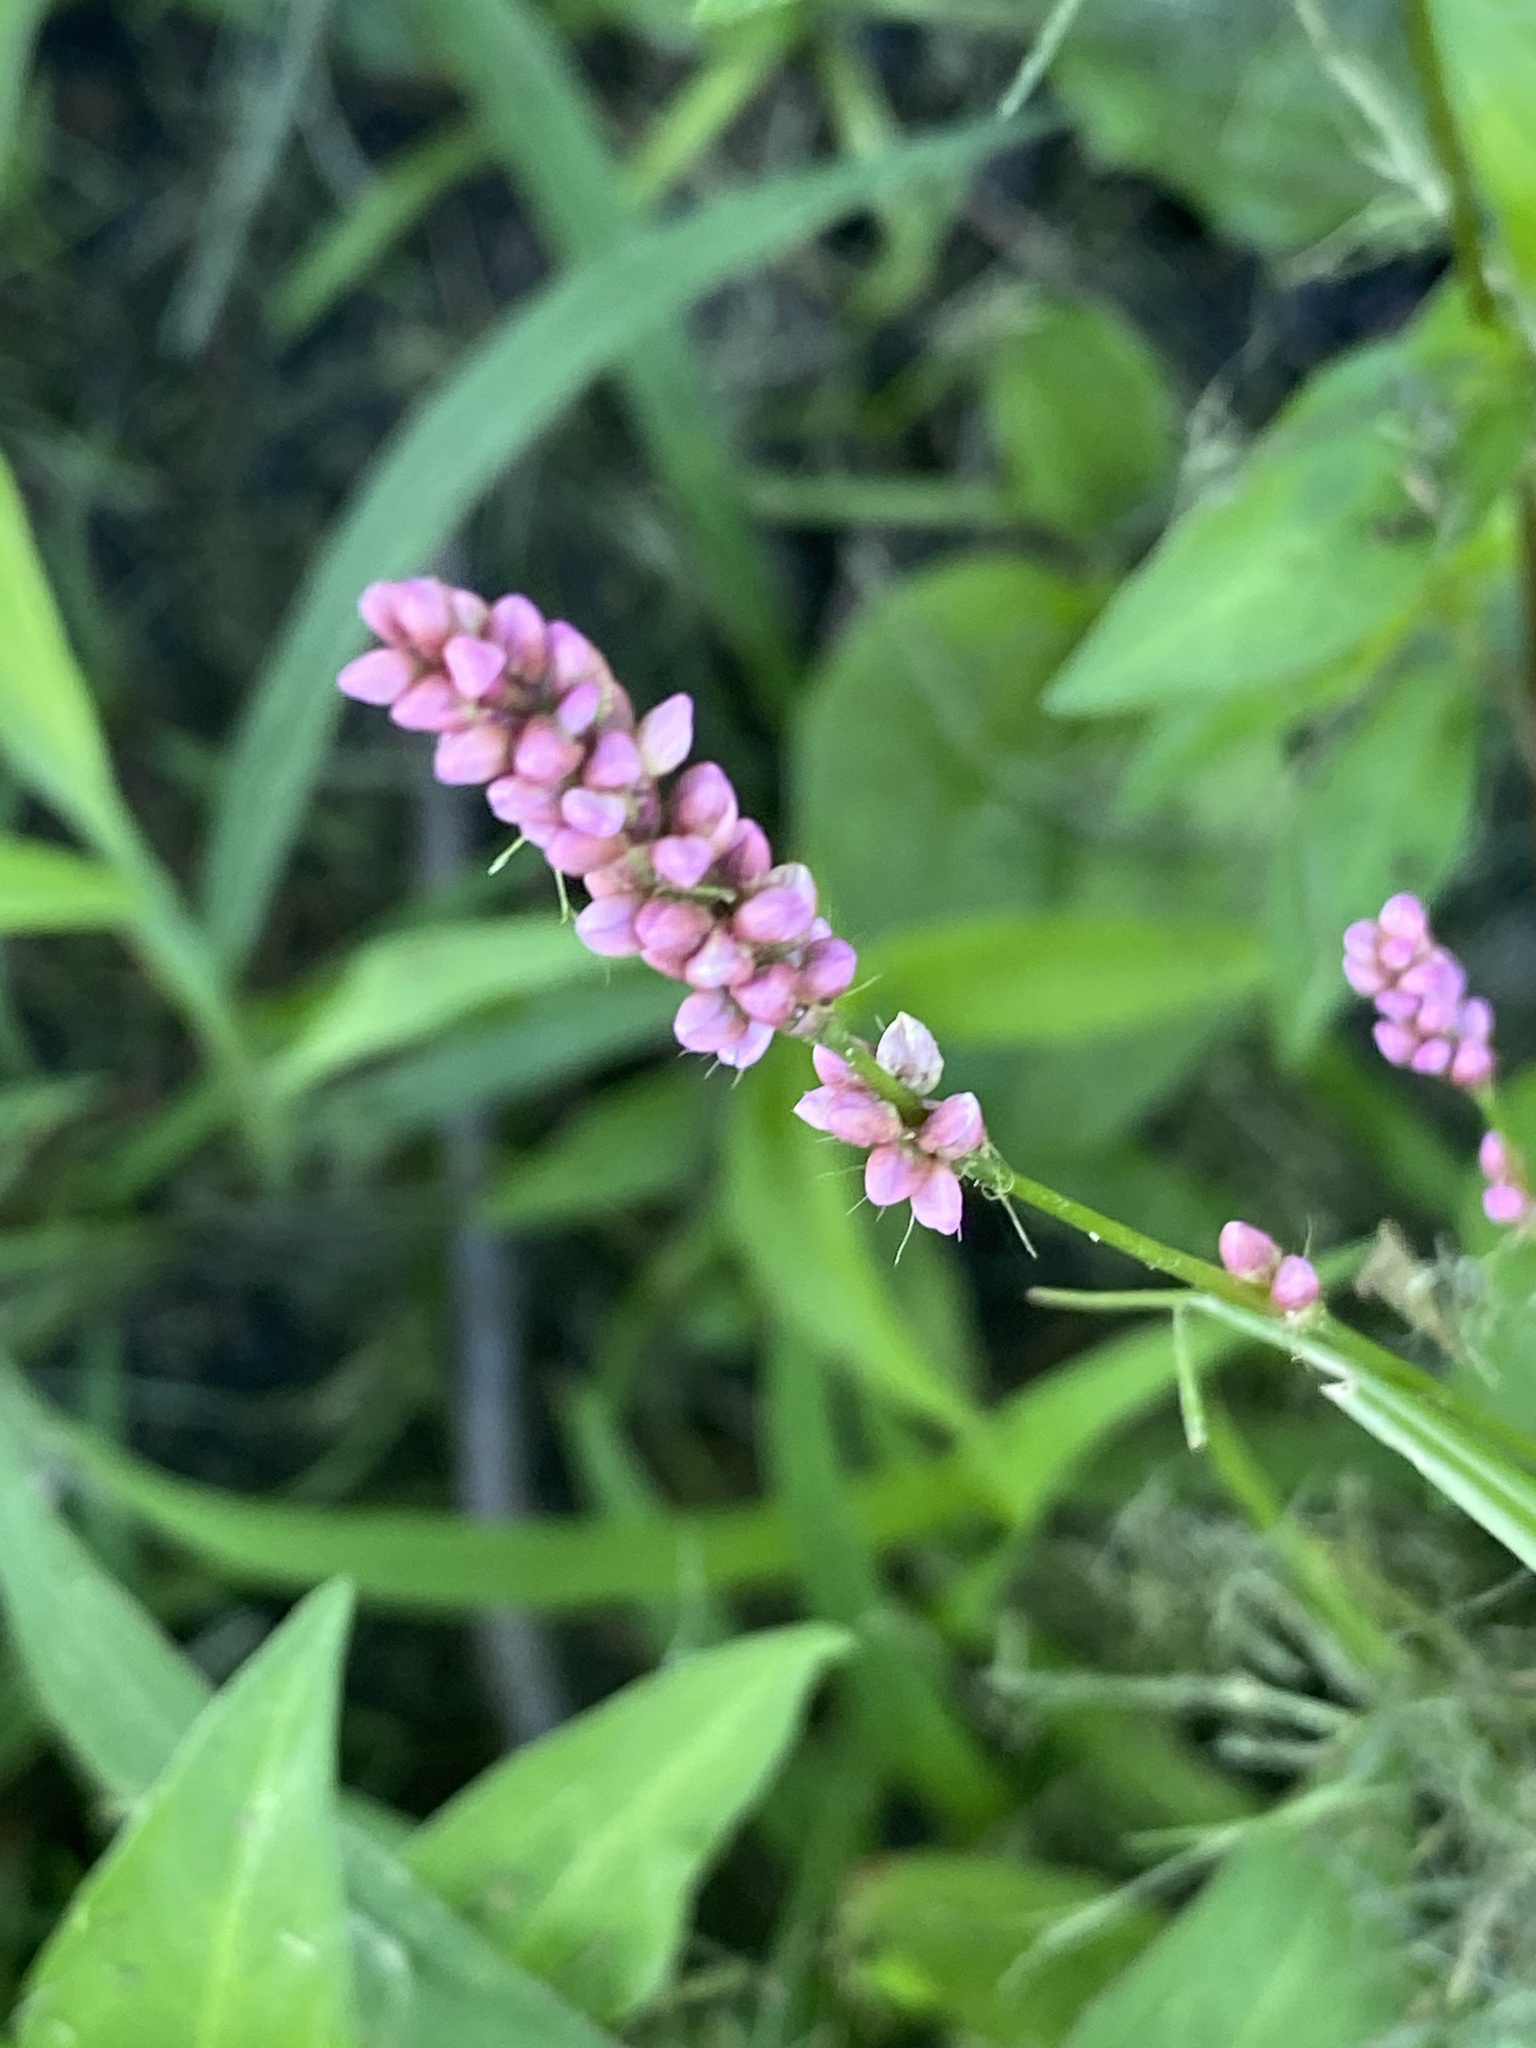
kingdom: Plantae
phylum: Tracheophyta
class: Magnoliopsida
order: Caryophyllales
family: Polygonaceae
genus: Persicaria
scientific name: Persicaria longiseta
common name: Bristly lady's-thumb
